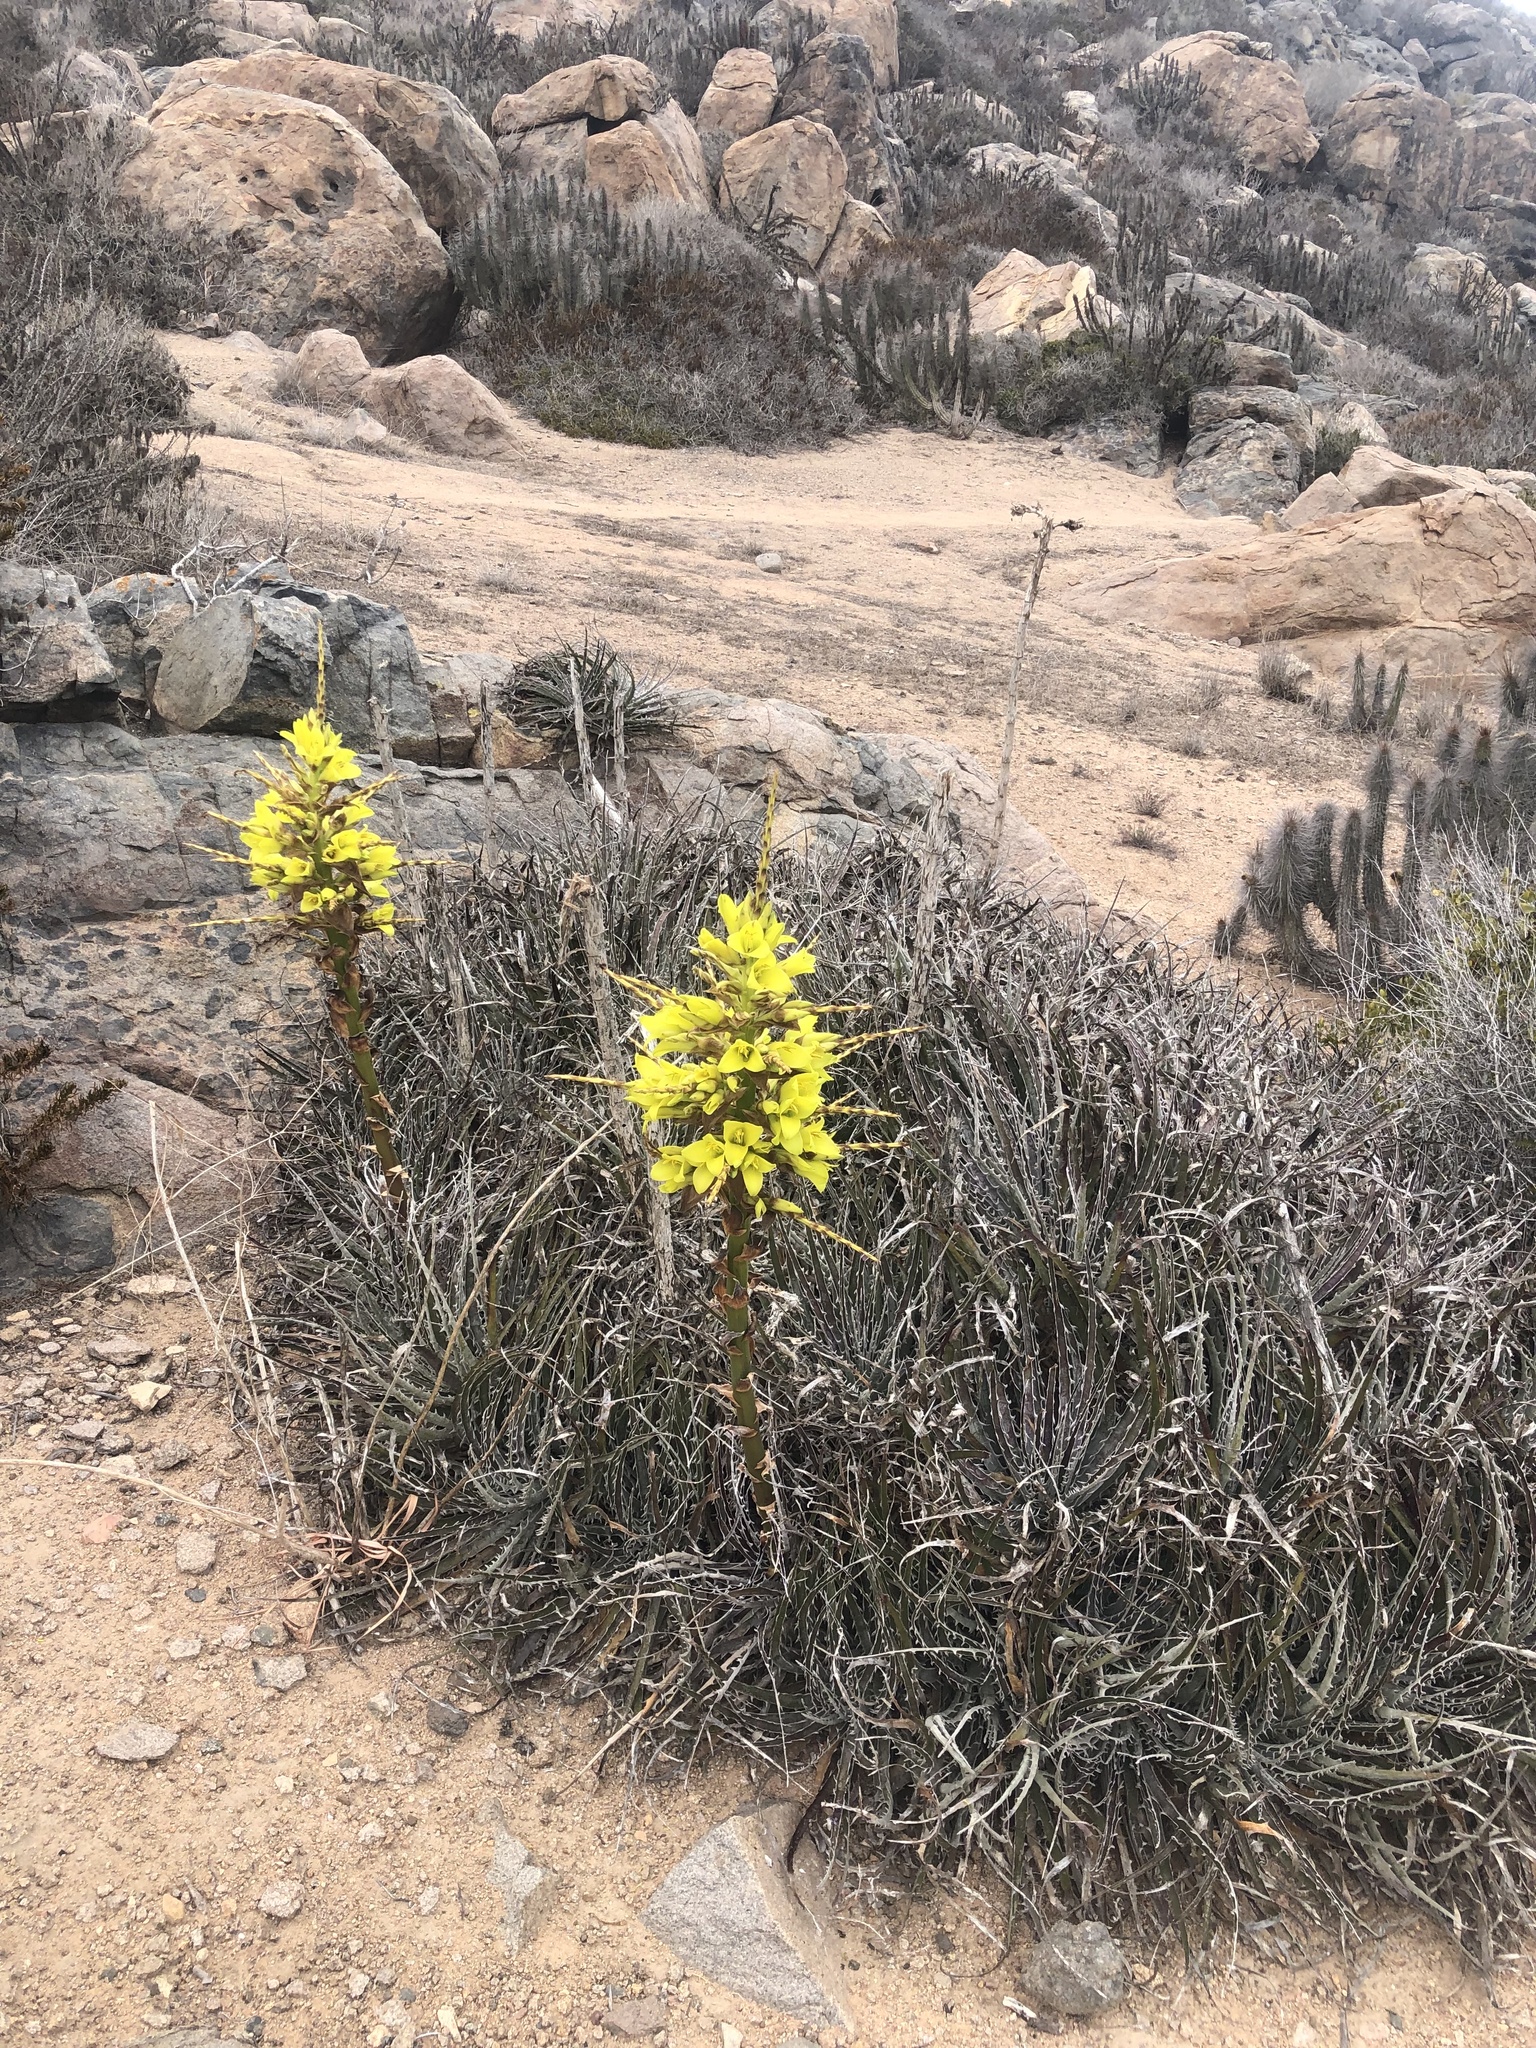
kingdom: Plantae
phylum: Tracheophyta
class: Liliopsida
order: Poales
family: Bromeliaceae
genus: Puya
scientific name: Puya gilmartiniae
